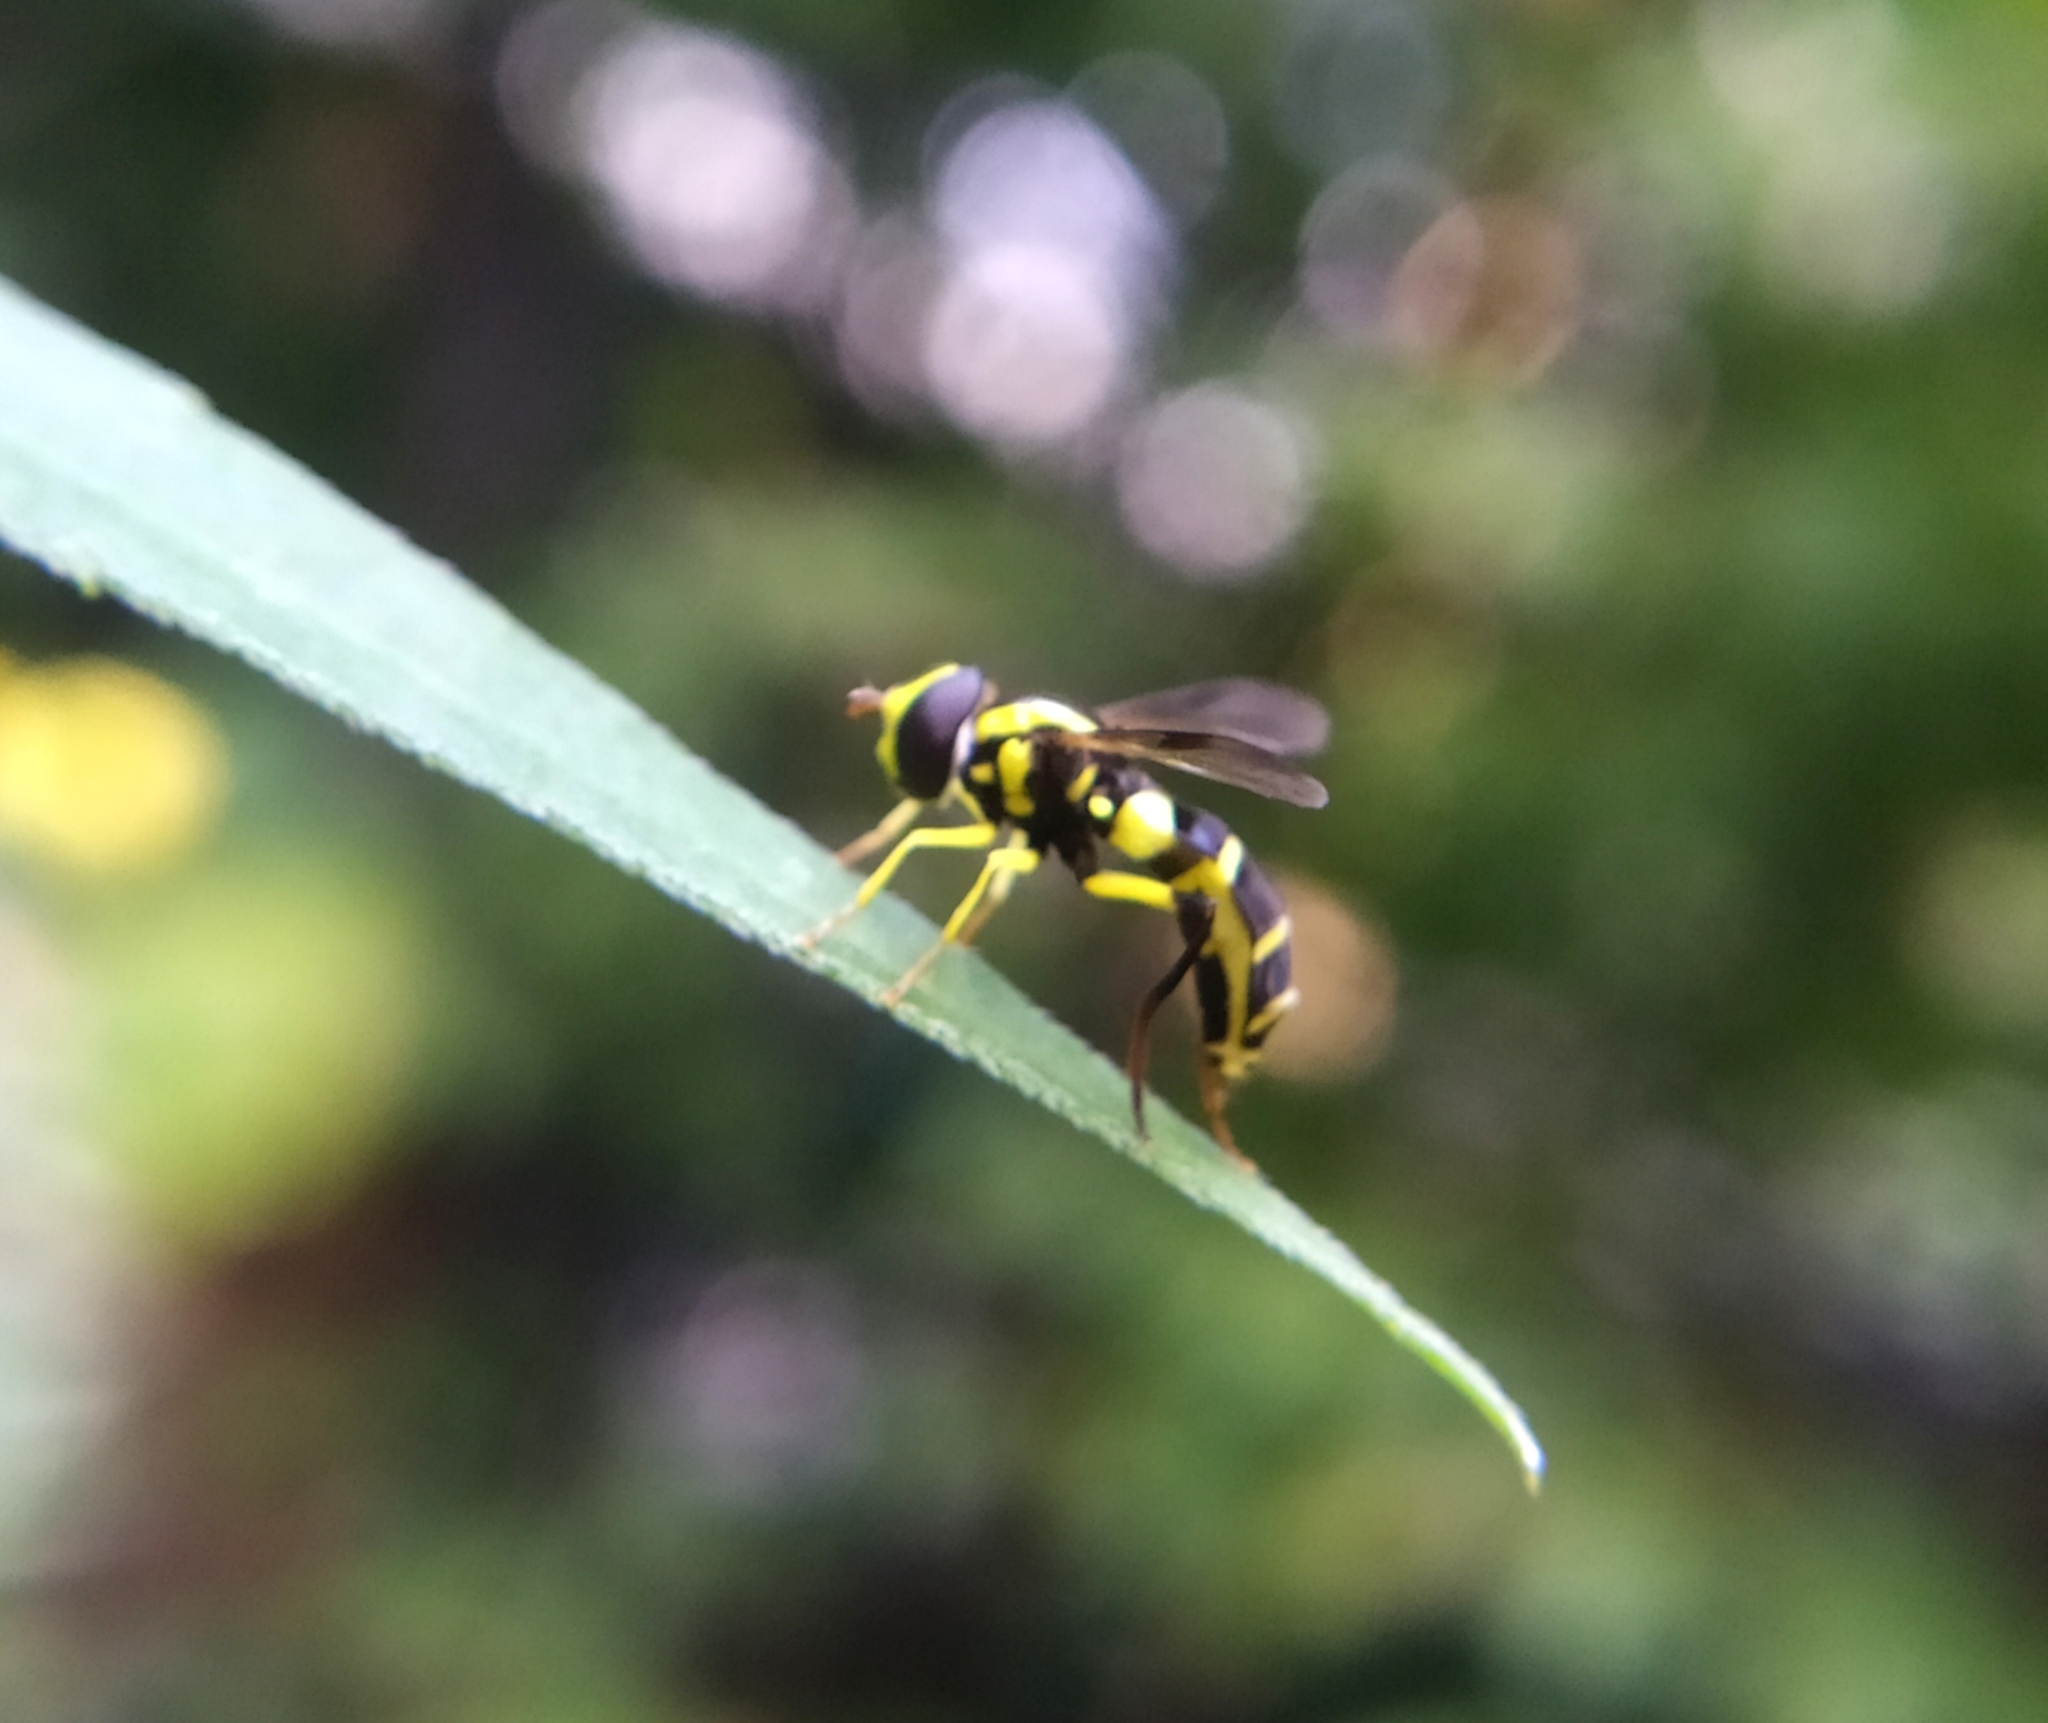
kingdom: Animalia
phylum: Arthropoda
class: Insecta
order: Diptera
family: Syrphidae
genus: Philhelius
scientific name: Philhelius dives
